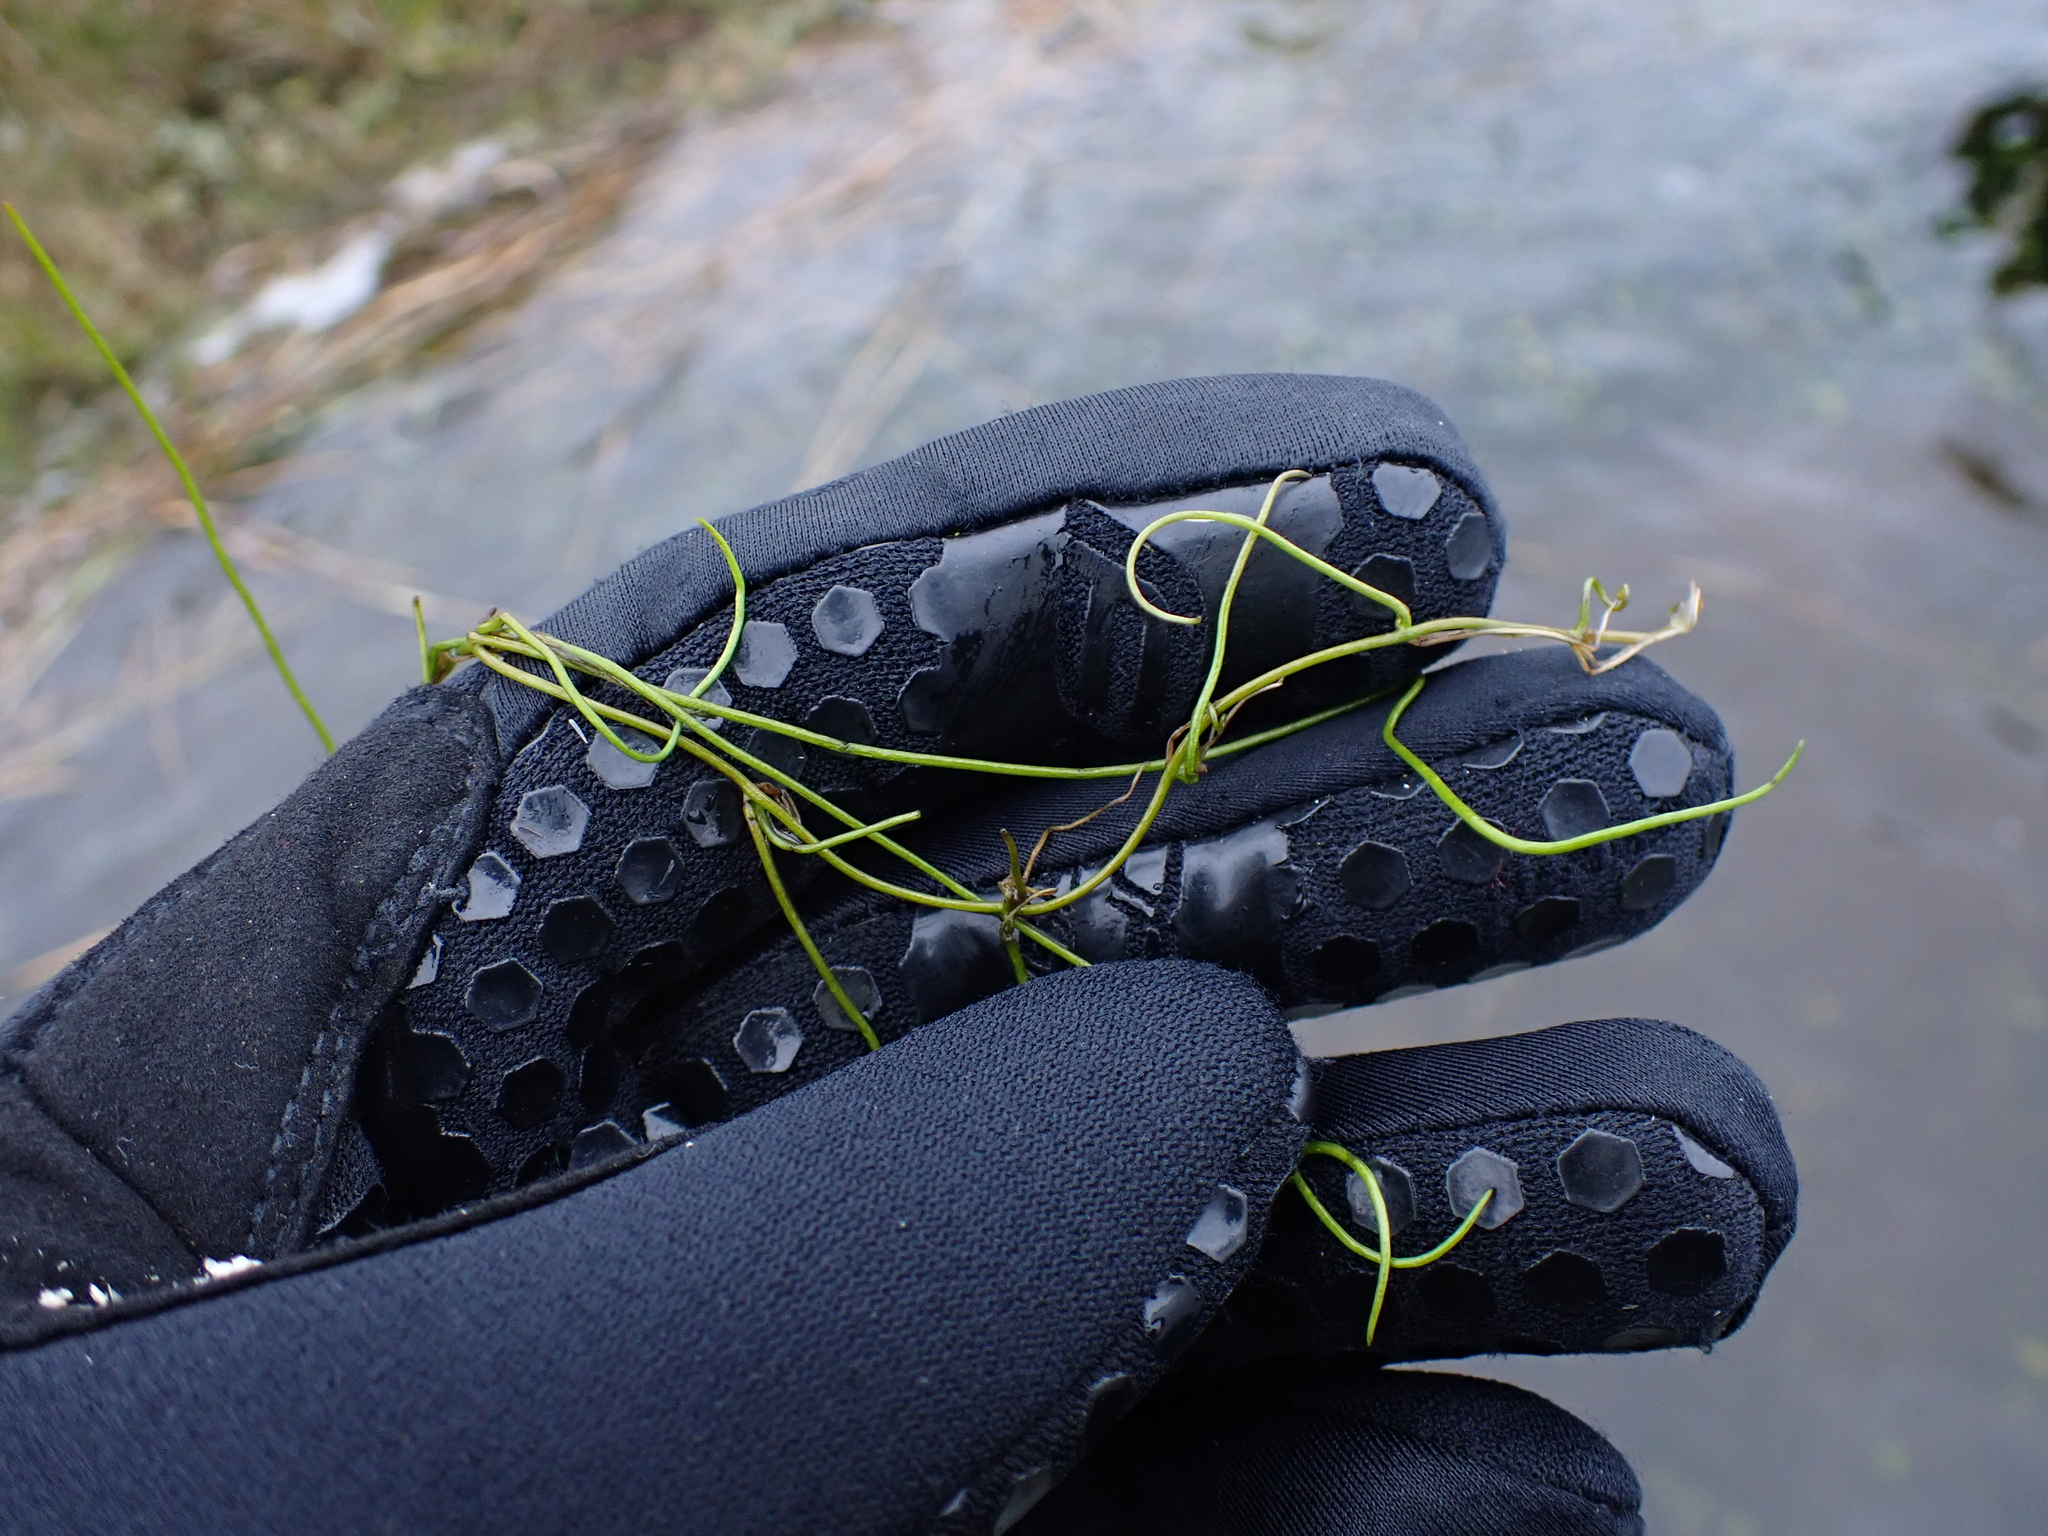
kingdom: Plantae
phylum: Tracheophyta
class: Polypodiopsida
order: Salviniales
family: Marsileaceae
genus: Pilularia
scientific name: Pilularia globulifera
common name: Pillwort
